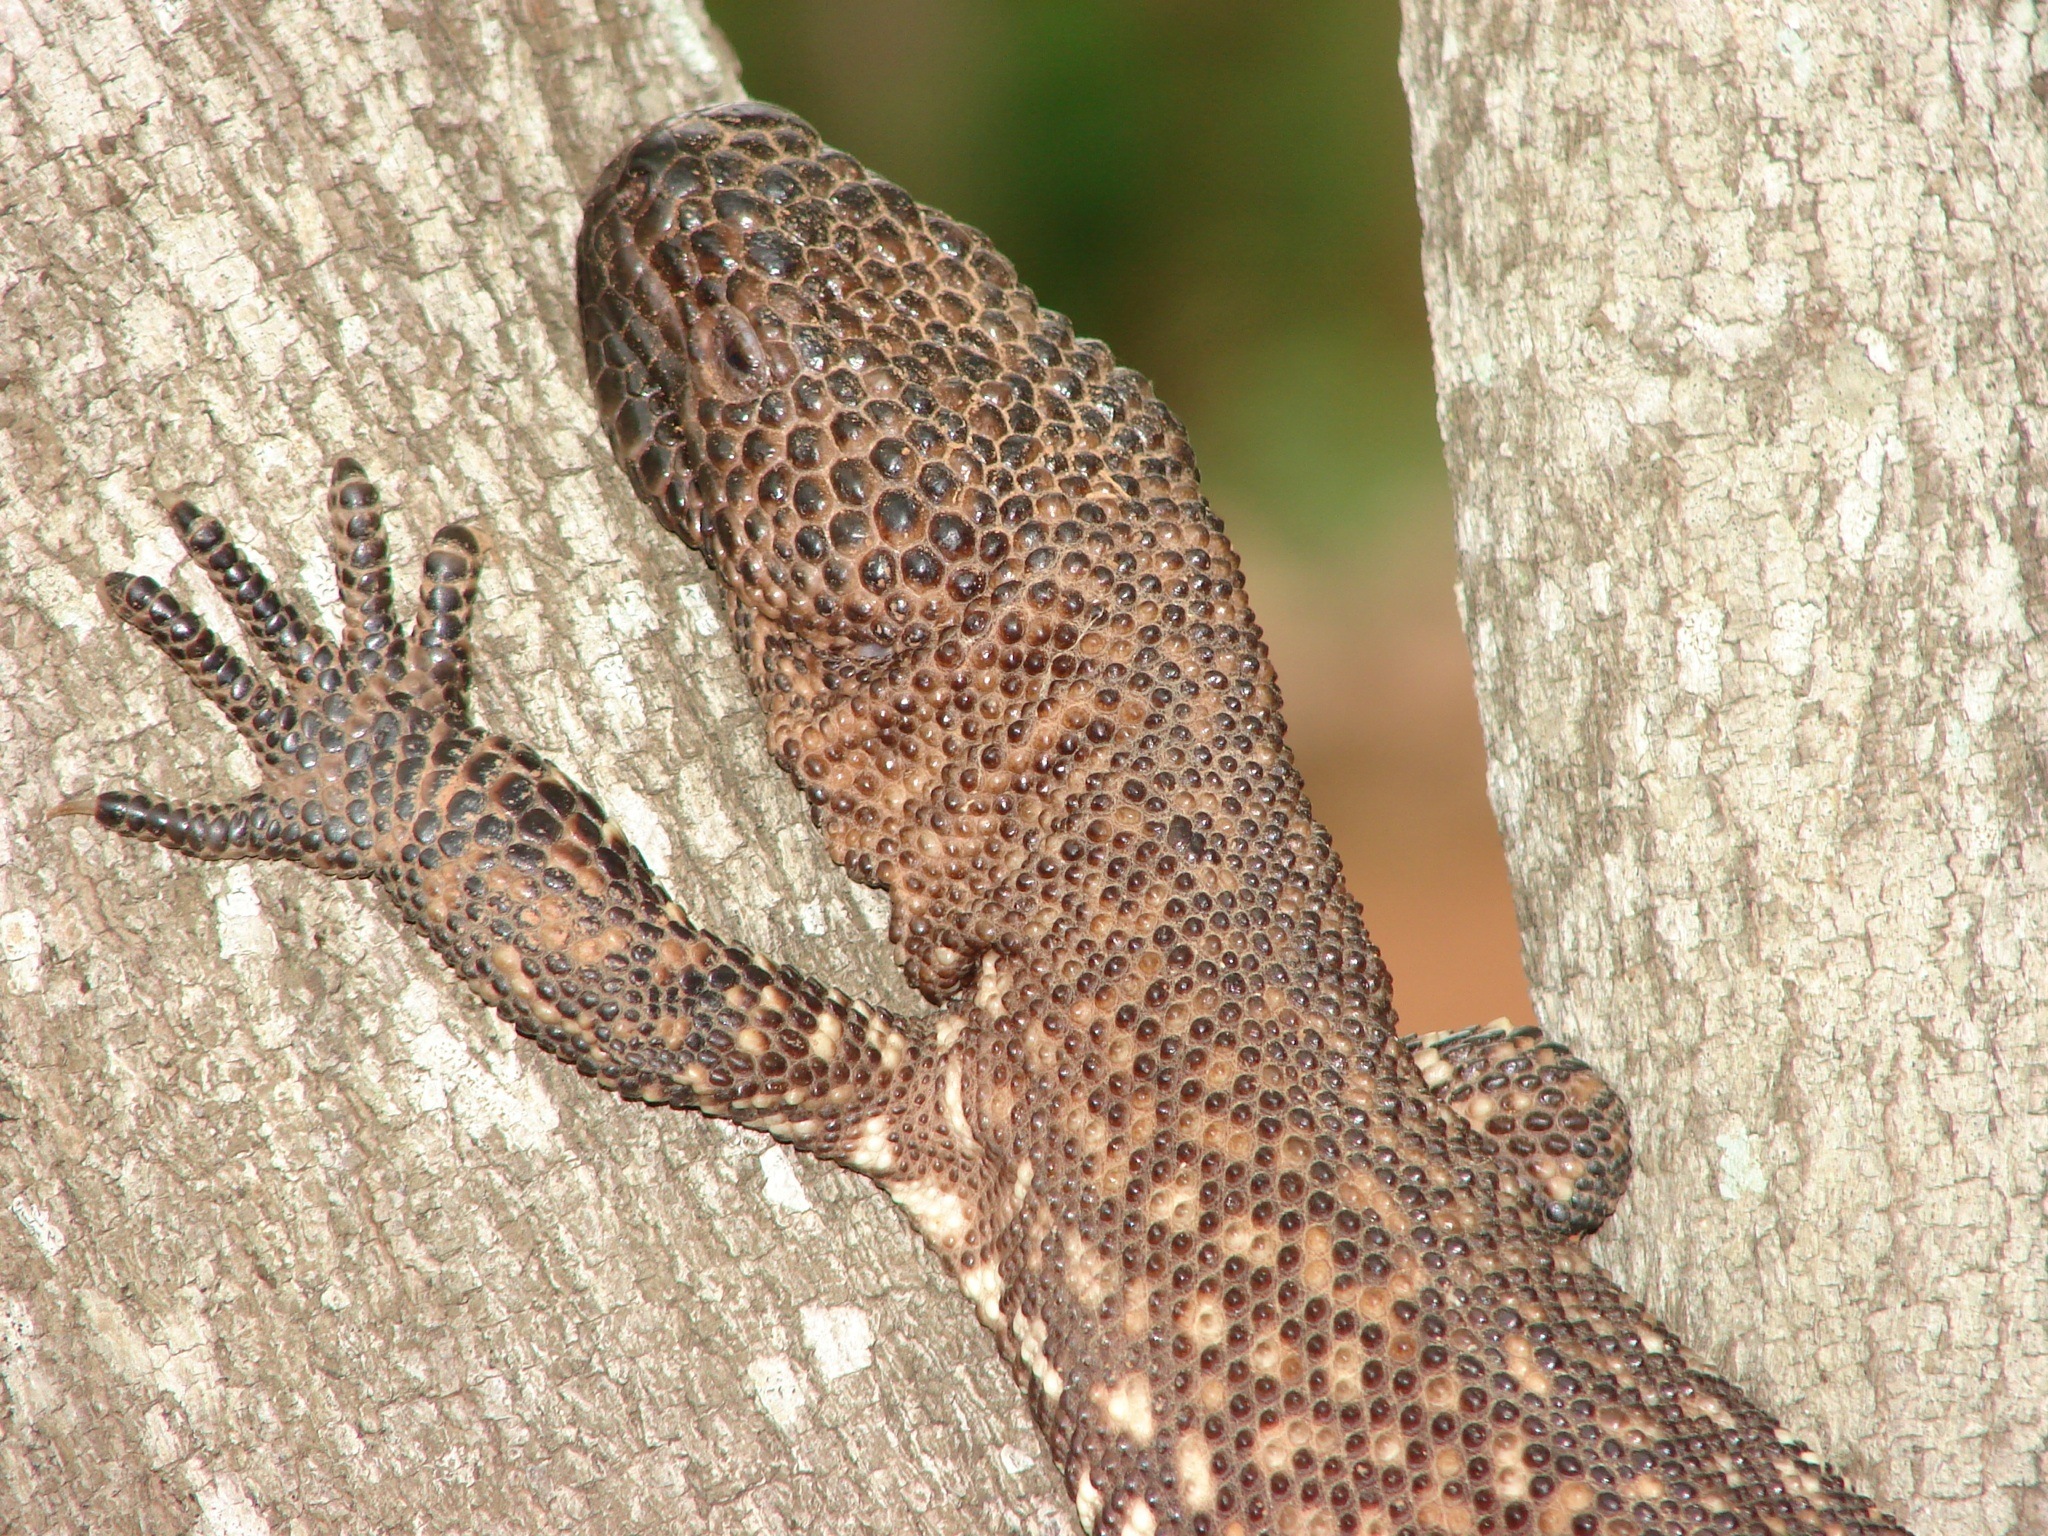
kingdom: Animalia
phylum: Chordata
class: Squamata
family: Helodermatidae
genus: Heloderma
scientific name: Heloderma horridum
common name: Mexican beaded lizard
